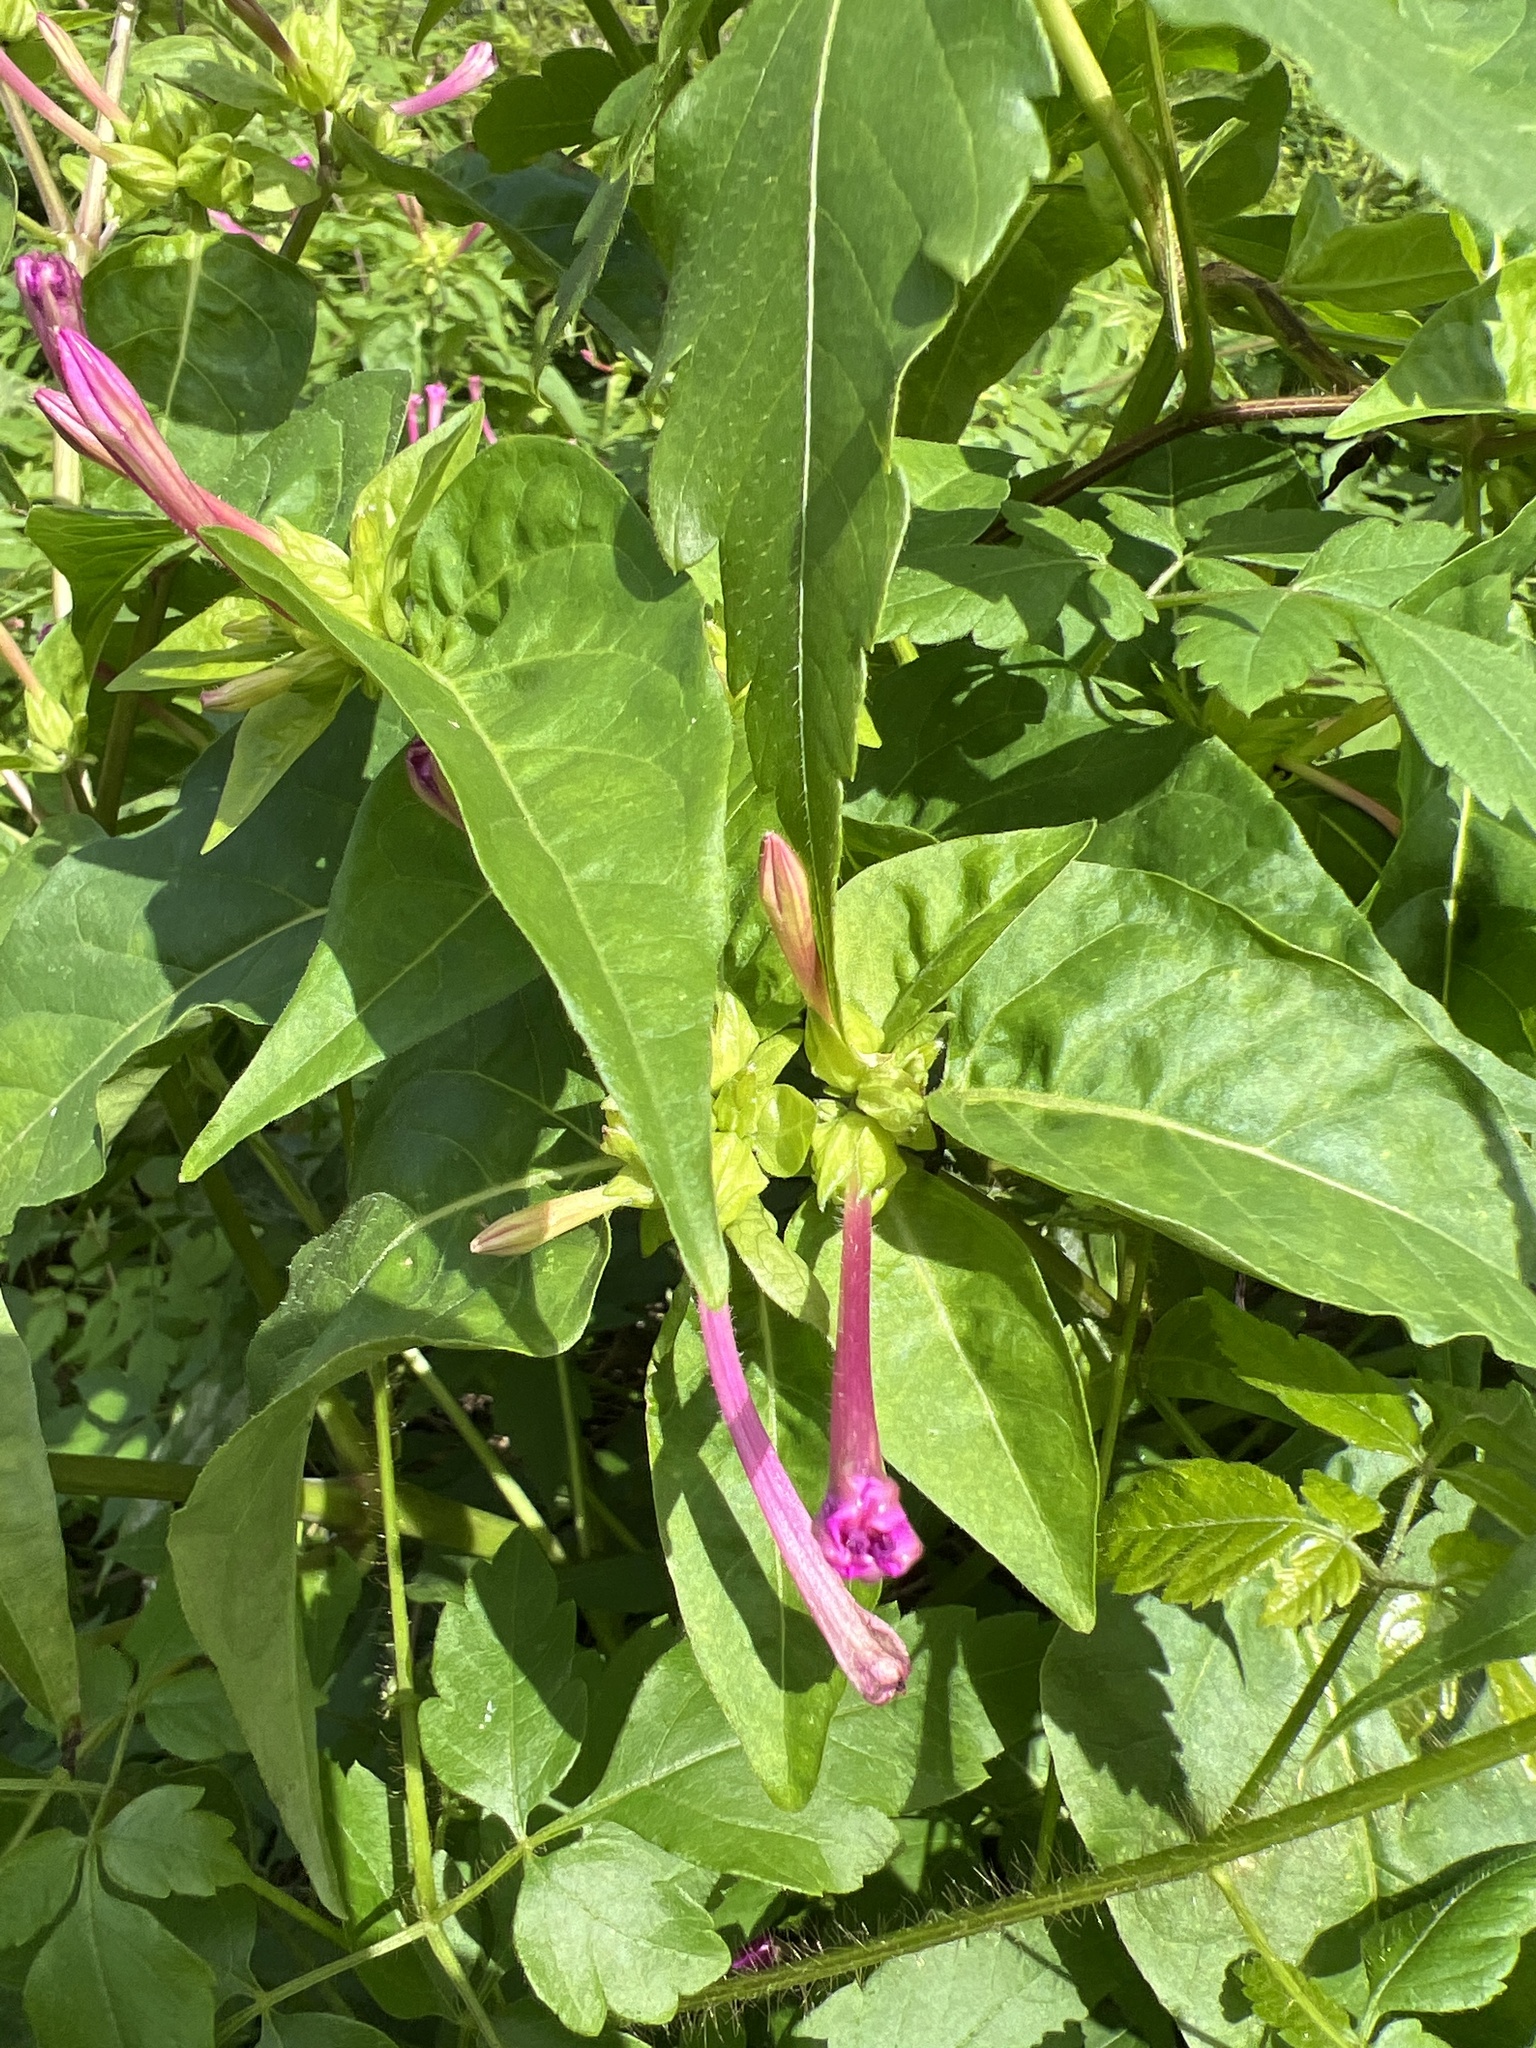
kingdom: Plantae
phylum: Tracheophyta
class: Magnoliopsida
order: Caryophyllales
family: Nyctaginaceae
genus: Mirabilis
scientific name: Mirabilis jalapa
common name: Marvel-of-peru
